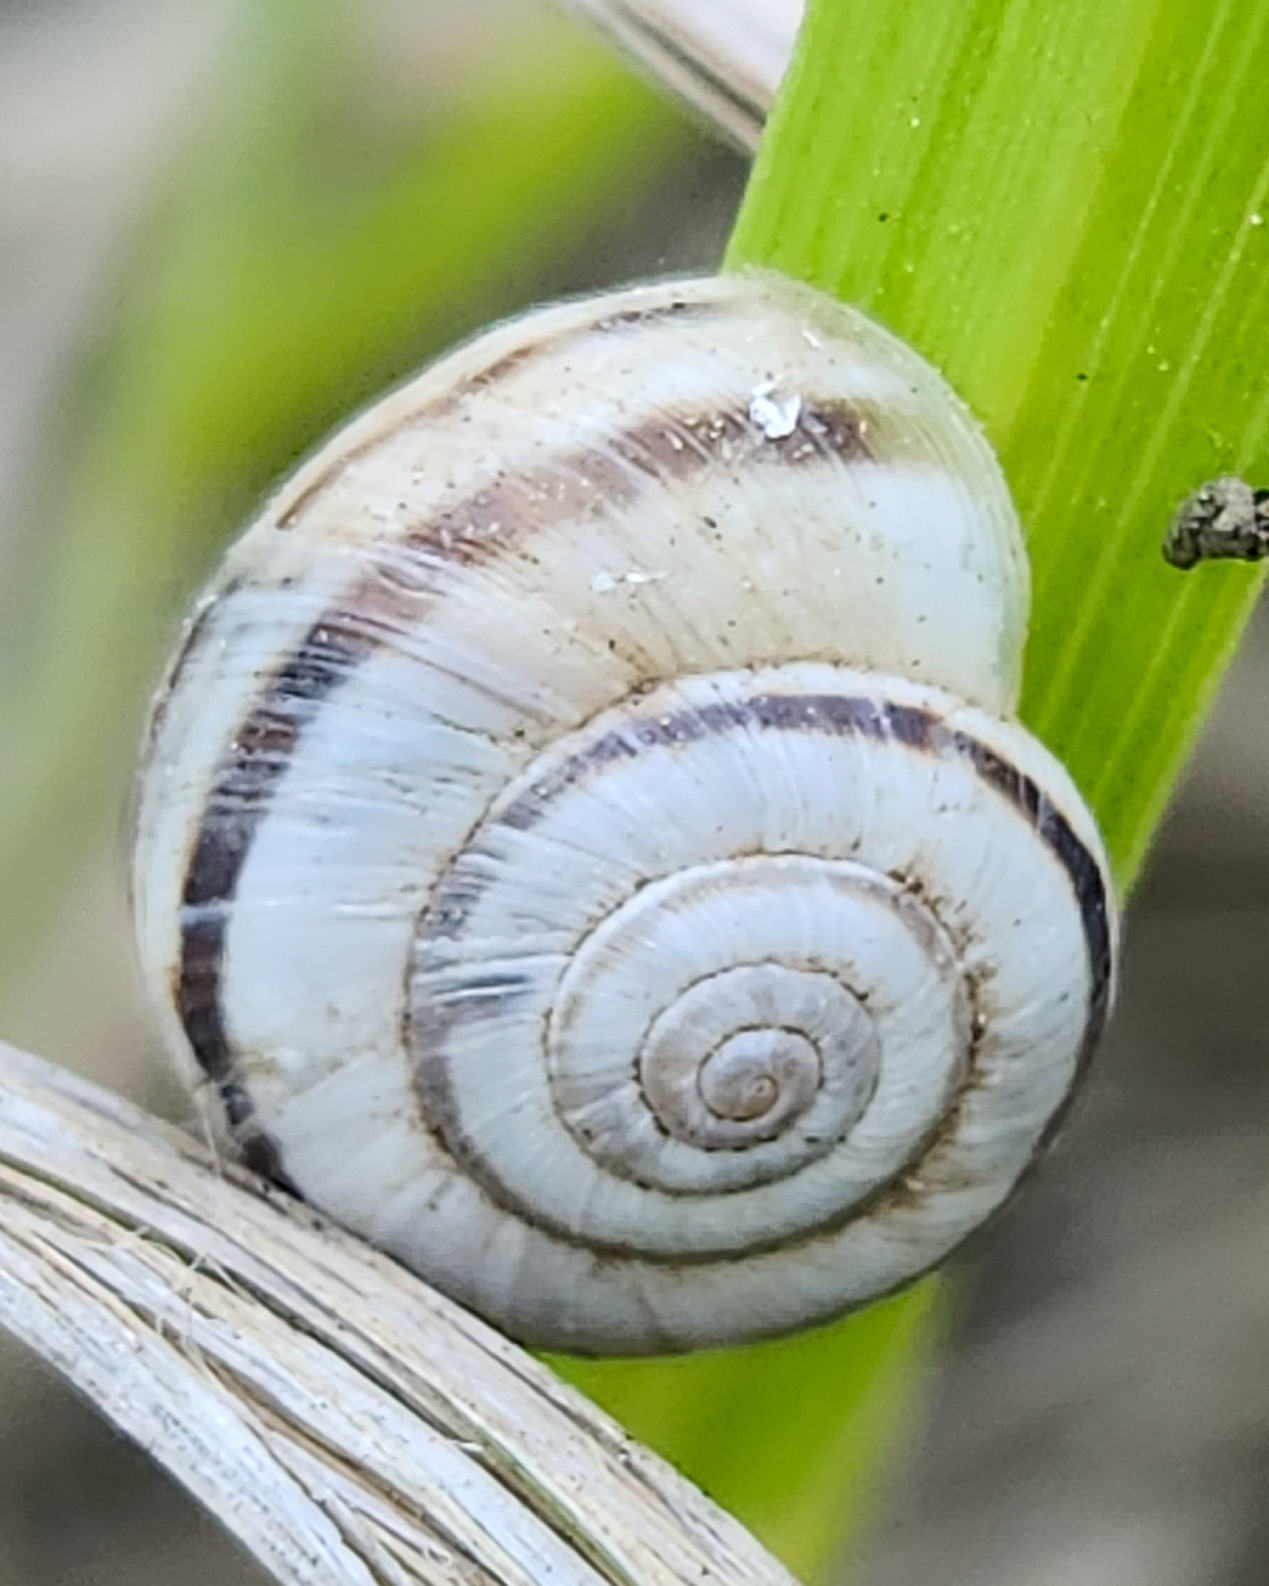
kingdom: Animalia
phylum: Mollusca
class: Gastropoda
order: Stylommatophora
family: Geomitridae
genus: Xerolenta
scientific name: Xerolenta obvia
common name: White heath snail
